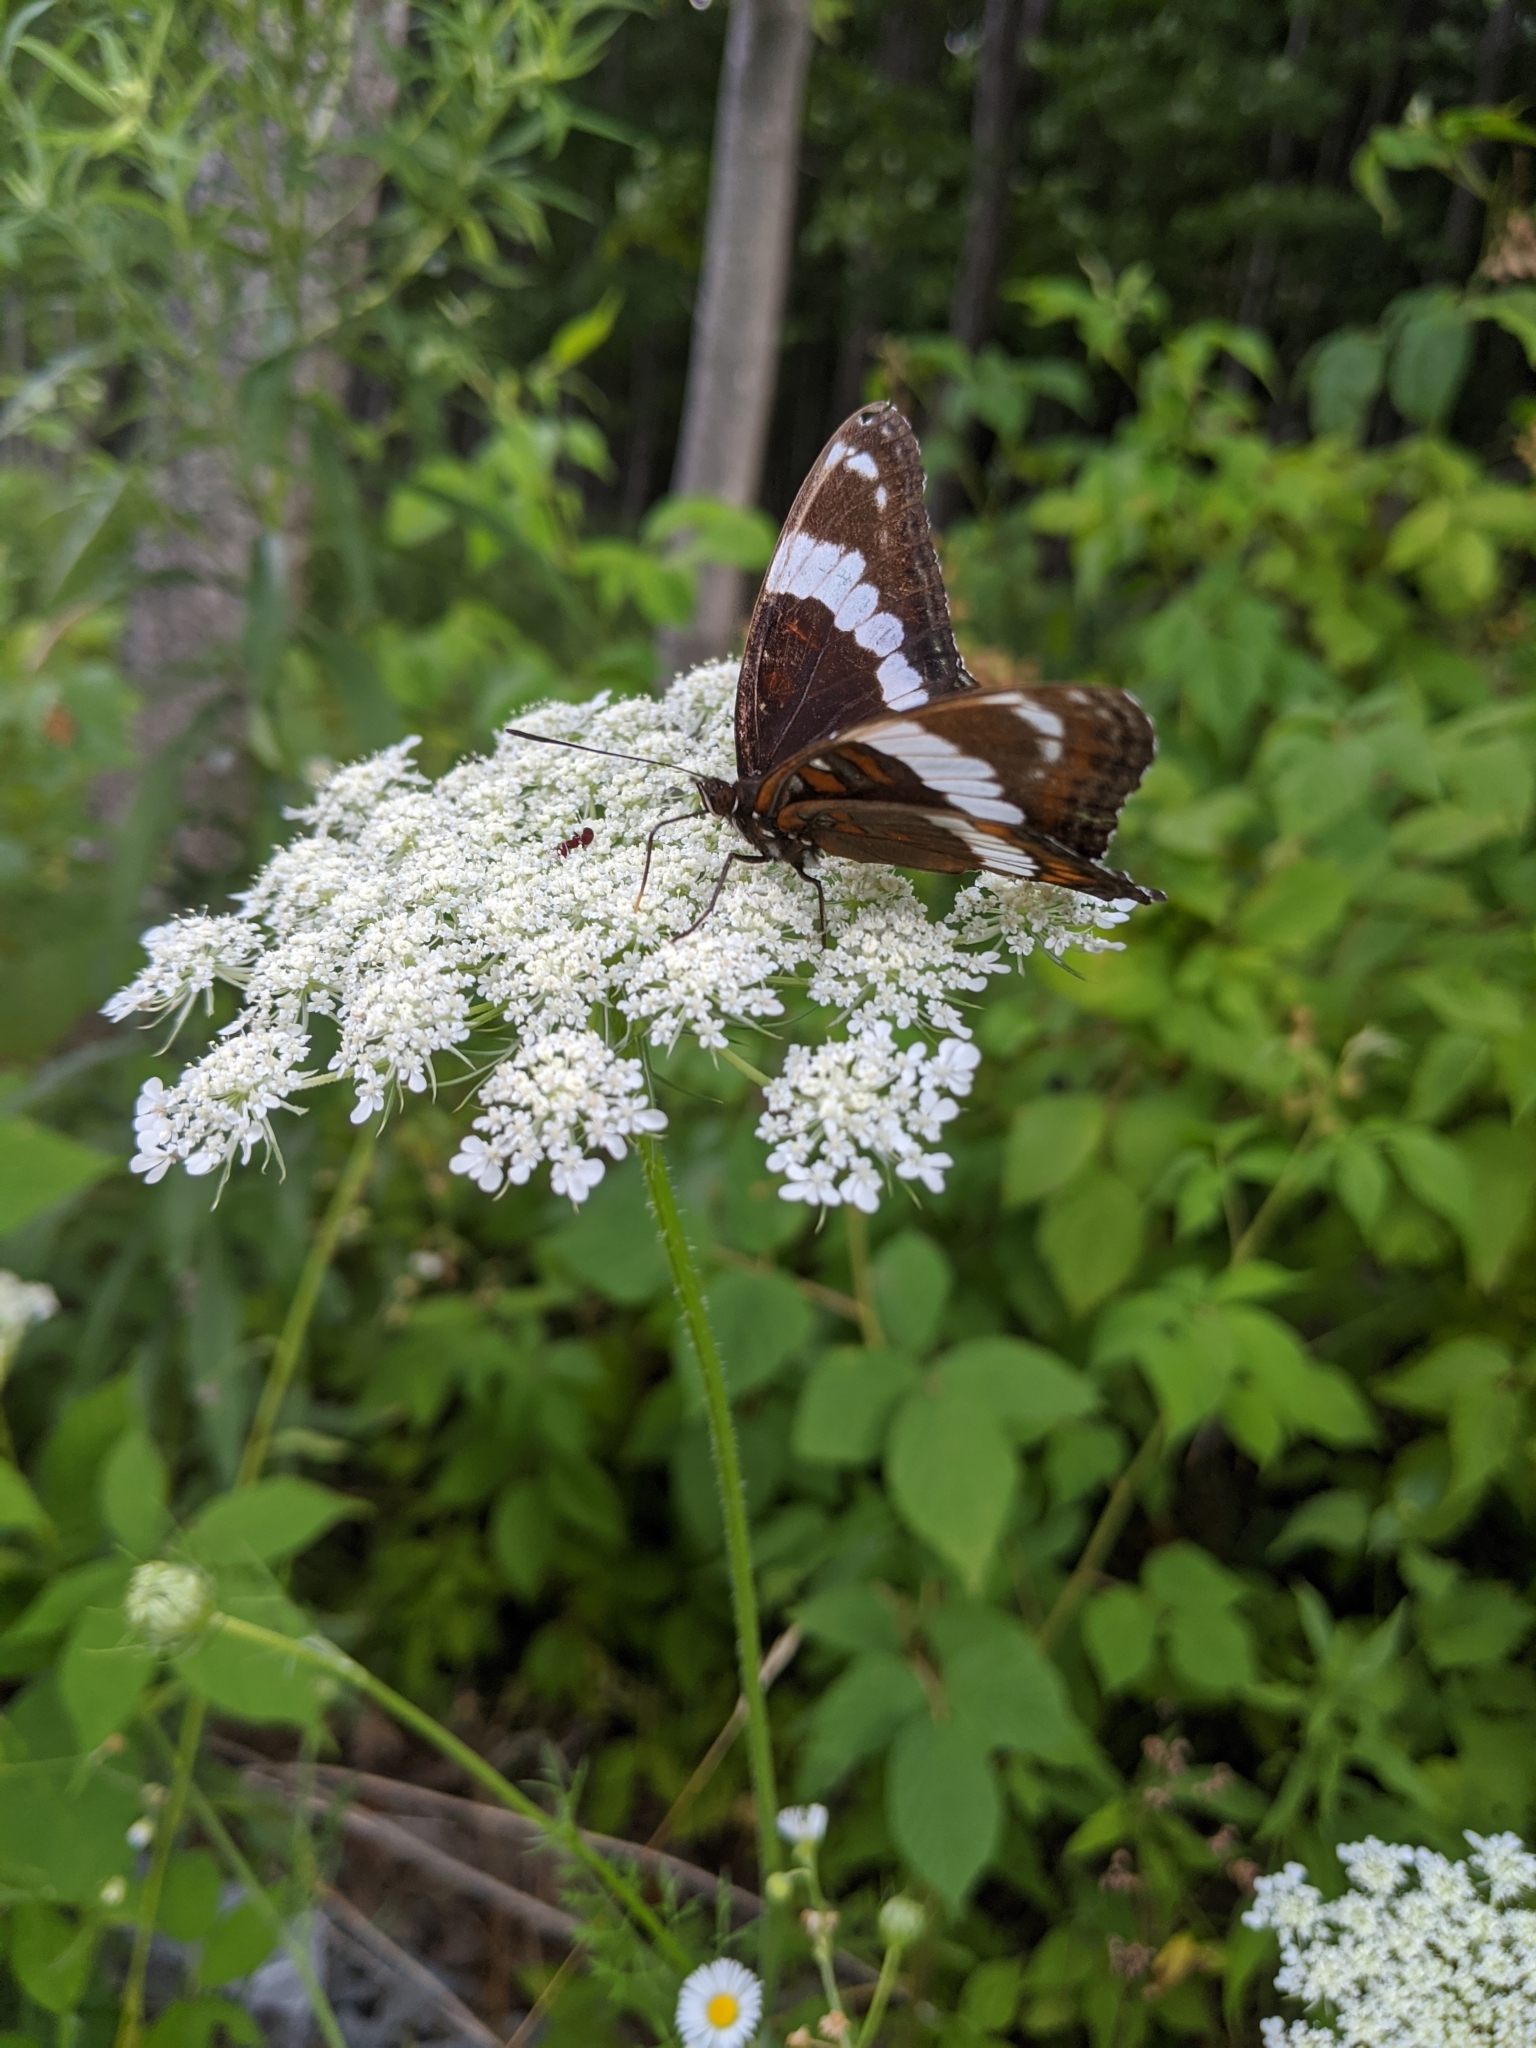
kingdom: Animalia
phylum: Arthropoda
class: Insecta
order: Lepidoptera
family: Nymphalidae
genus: Limenitis
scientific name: Limenitis arthemis
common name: Red-spotted admiral
